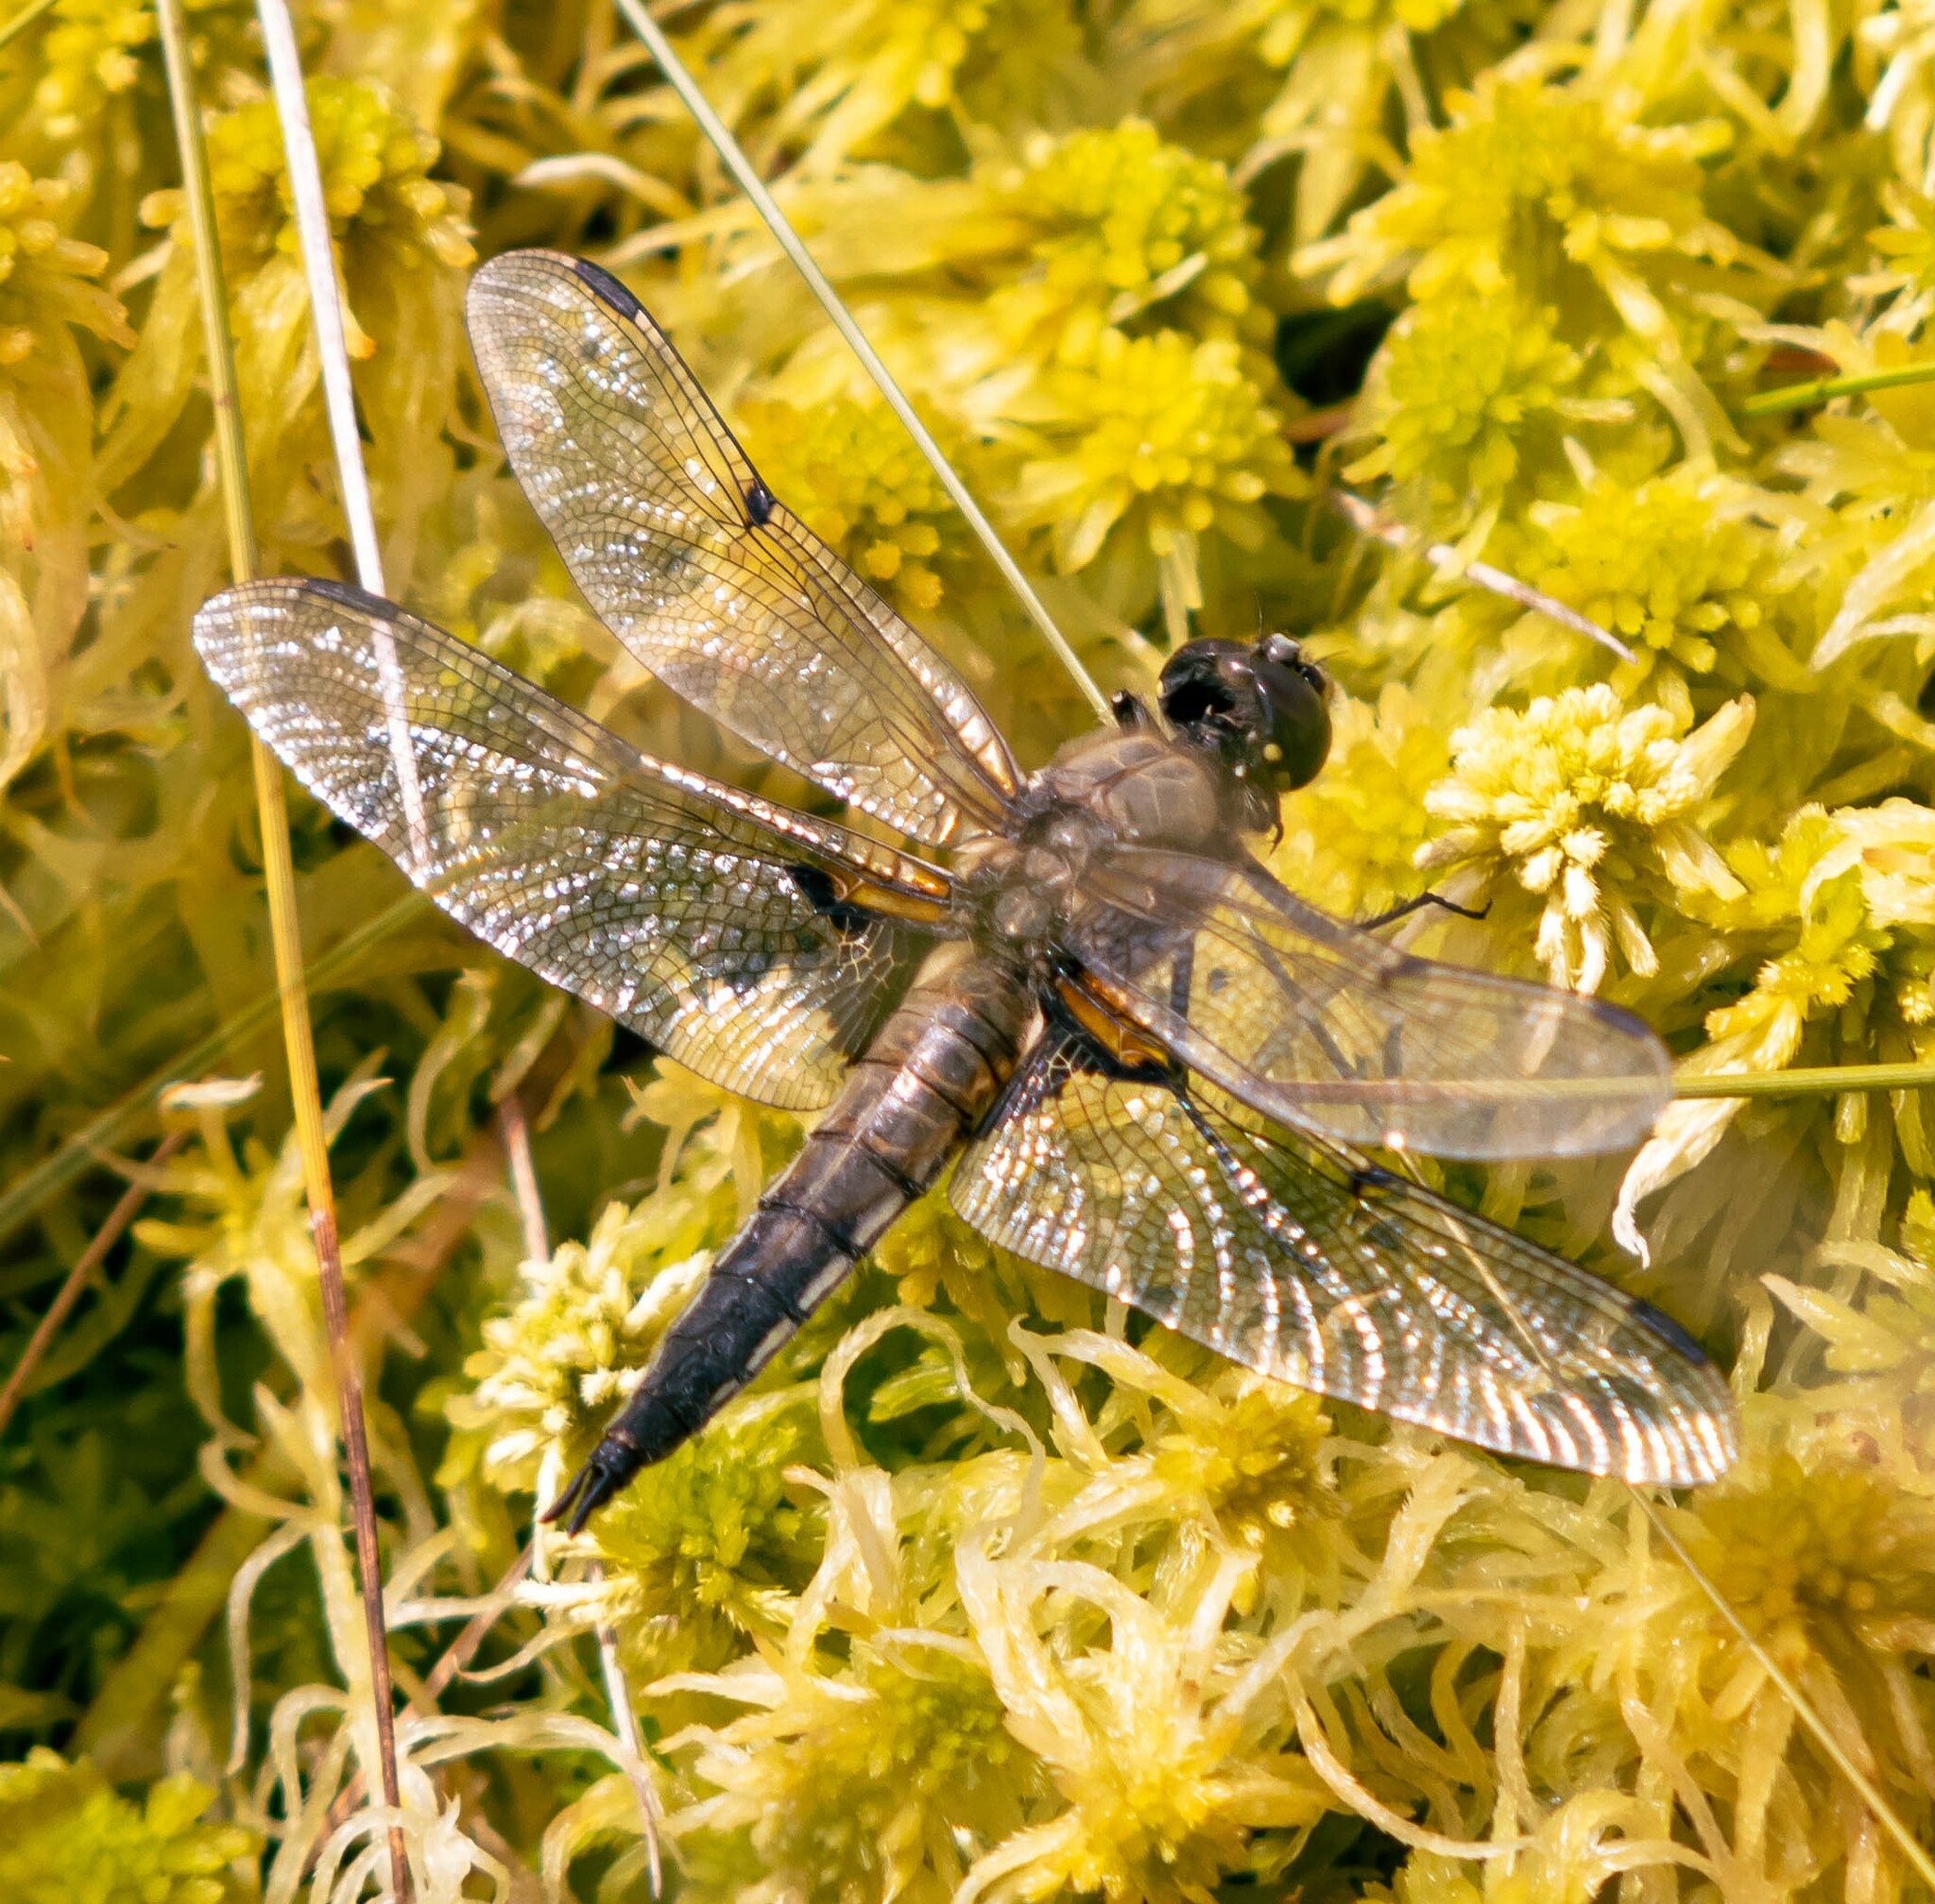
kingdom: Animalia
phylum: Arthropoda
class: Insecta
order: Odonata
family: Libellulidae
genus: Libellula
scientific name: Libellula quadrimaculata
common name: Four-spotted chaser
